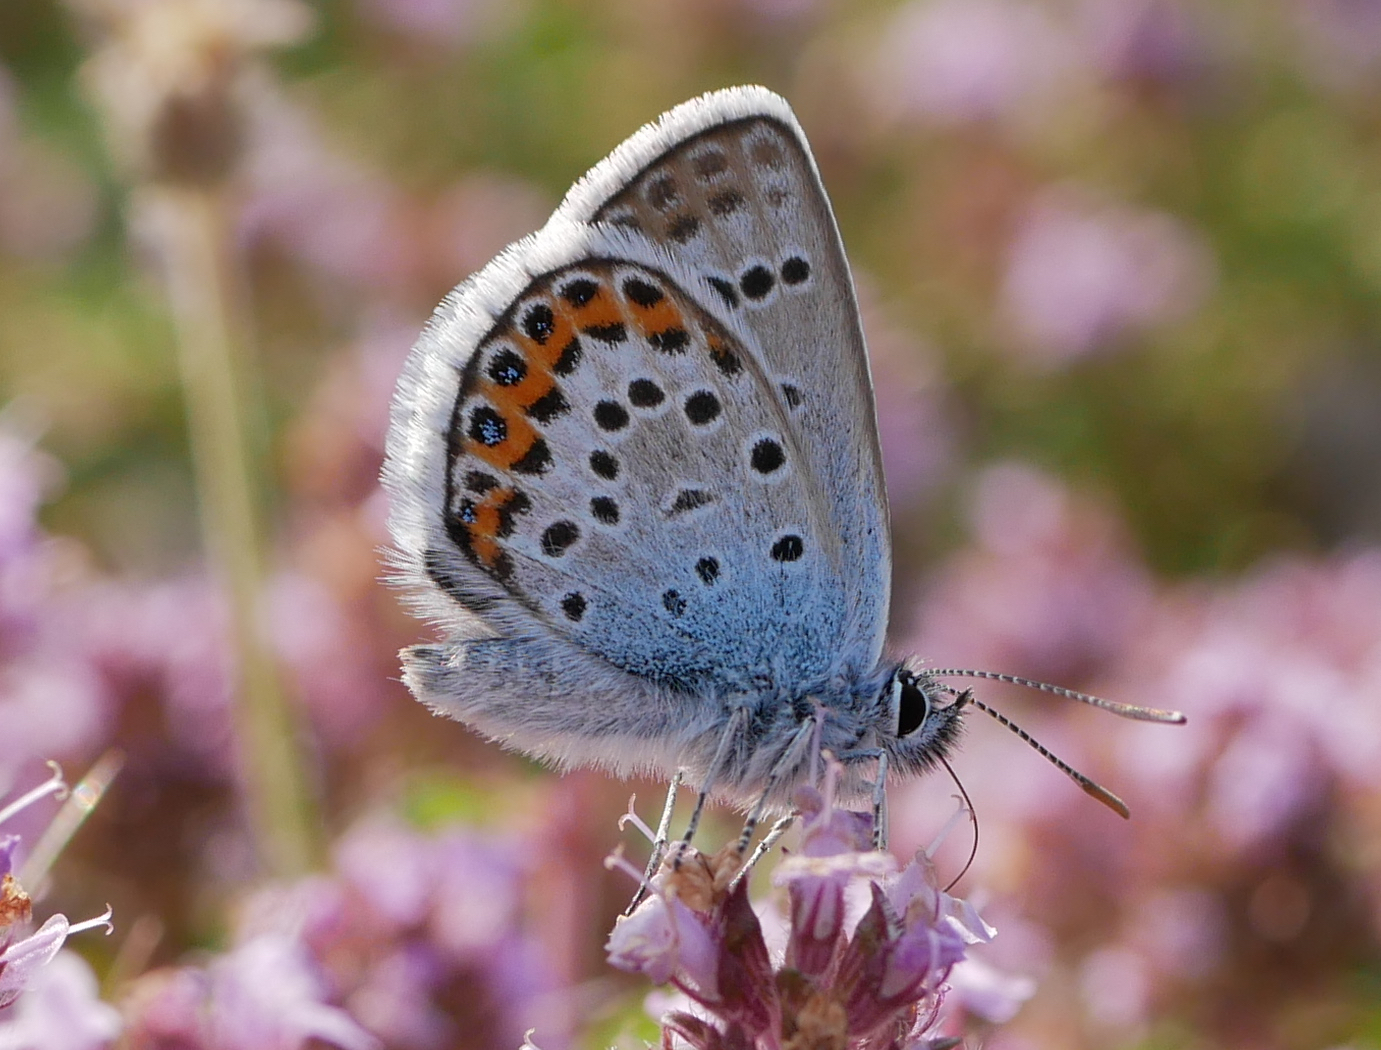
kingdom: Animalia
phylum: Arthropoda
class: Insecta
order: Lepidoptera
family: Lycaenidae
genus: Plebejus
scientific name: Plebejus argus
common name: Silver-studded blue
